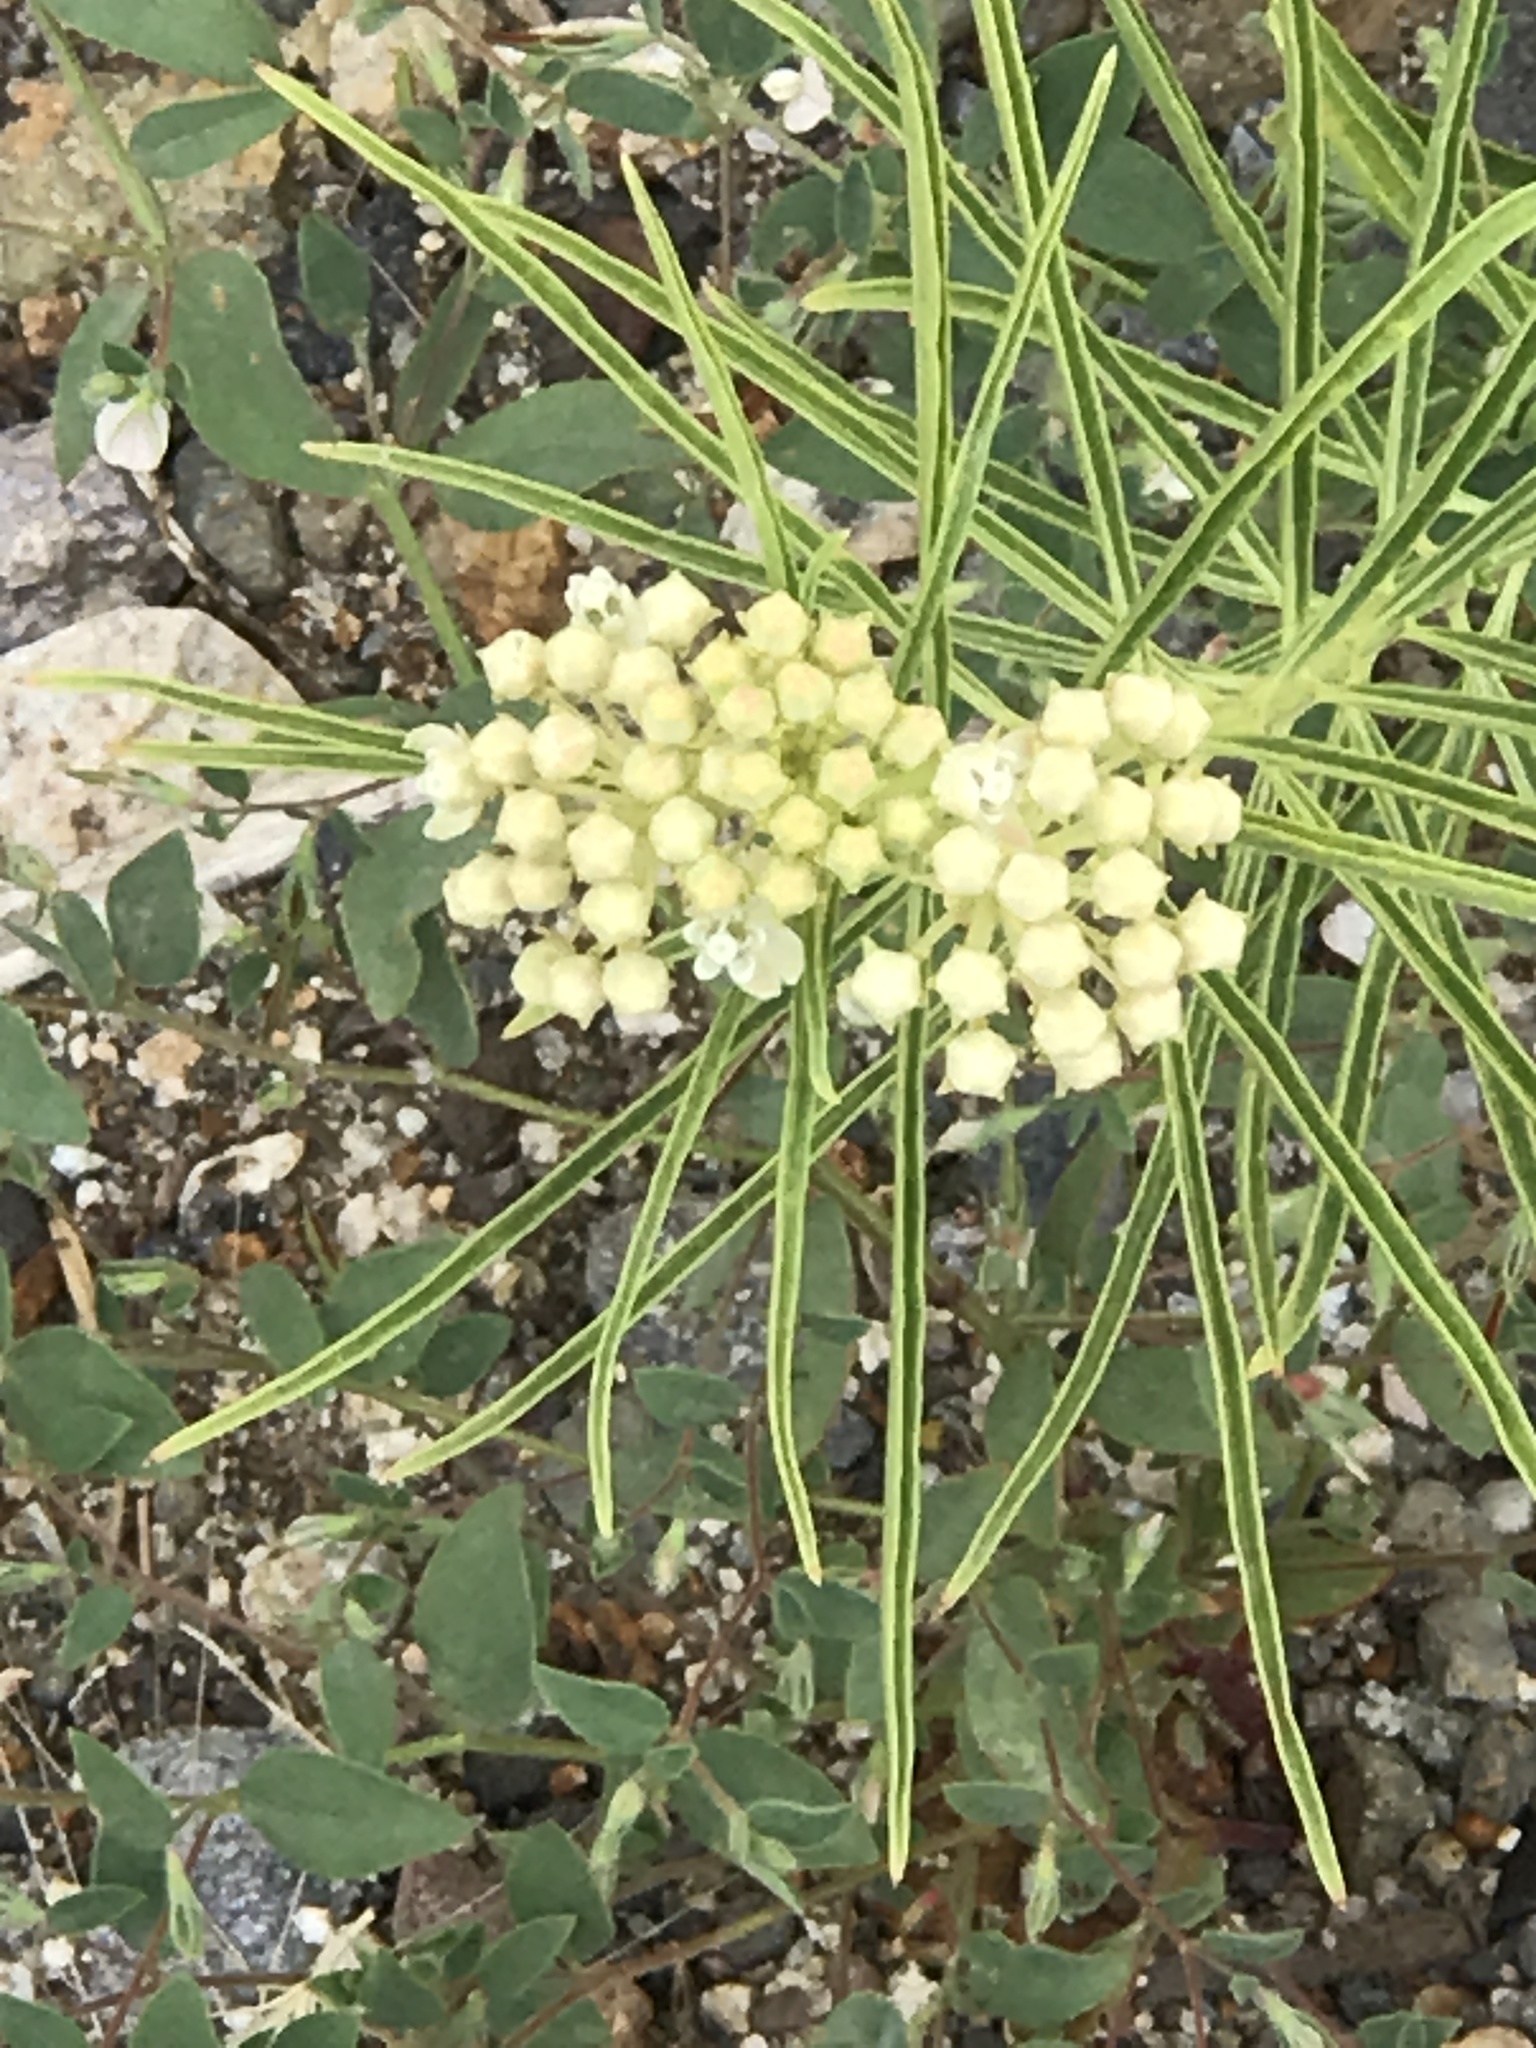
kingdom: Plantae
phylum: Tracheophyta
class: Magnoliopsida
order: Gentianales
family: Apocynaceae
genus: Asclepias
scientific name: Asclepias fascicularis
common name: Mexican milkweed
